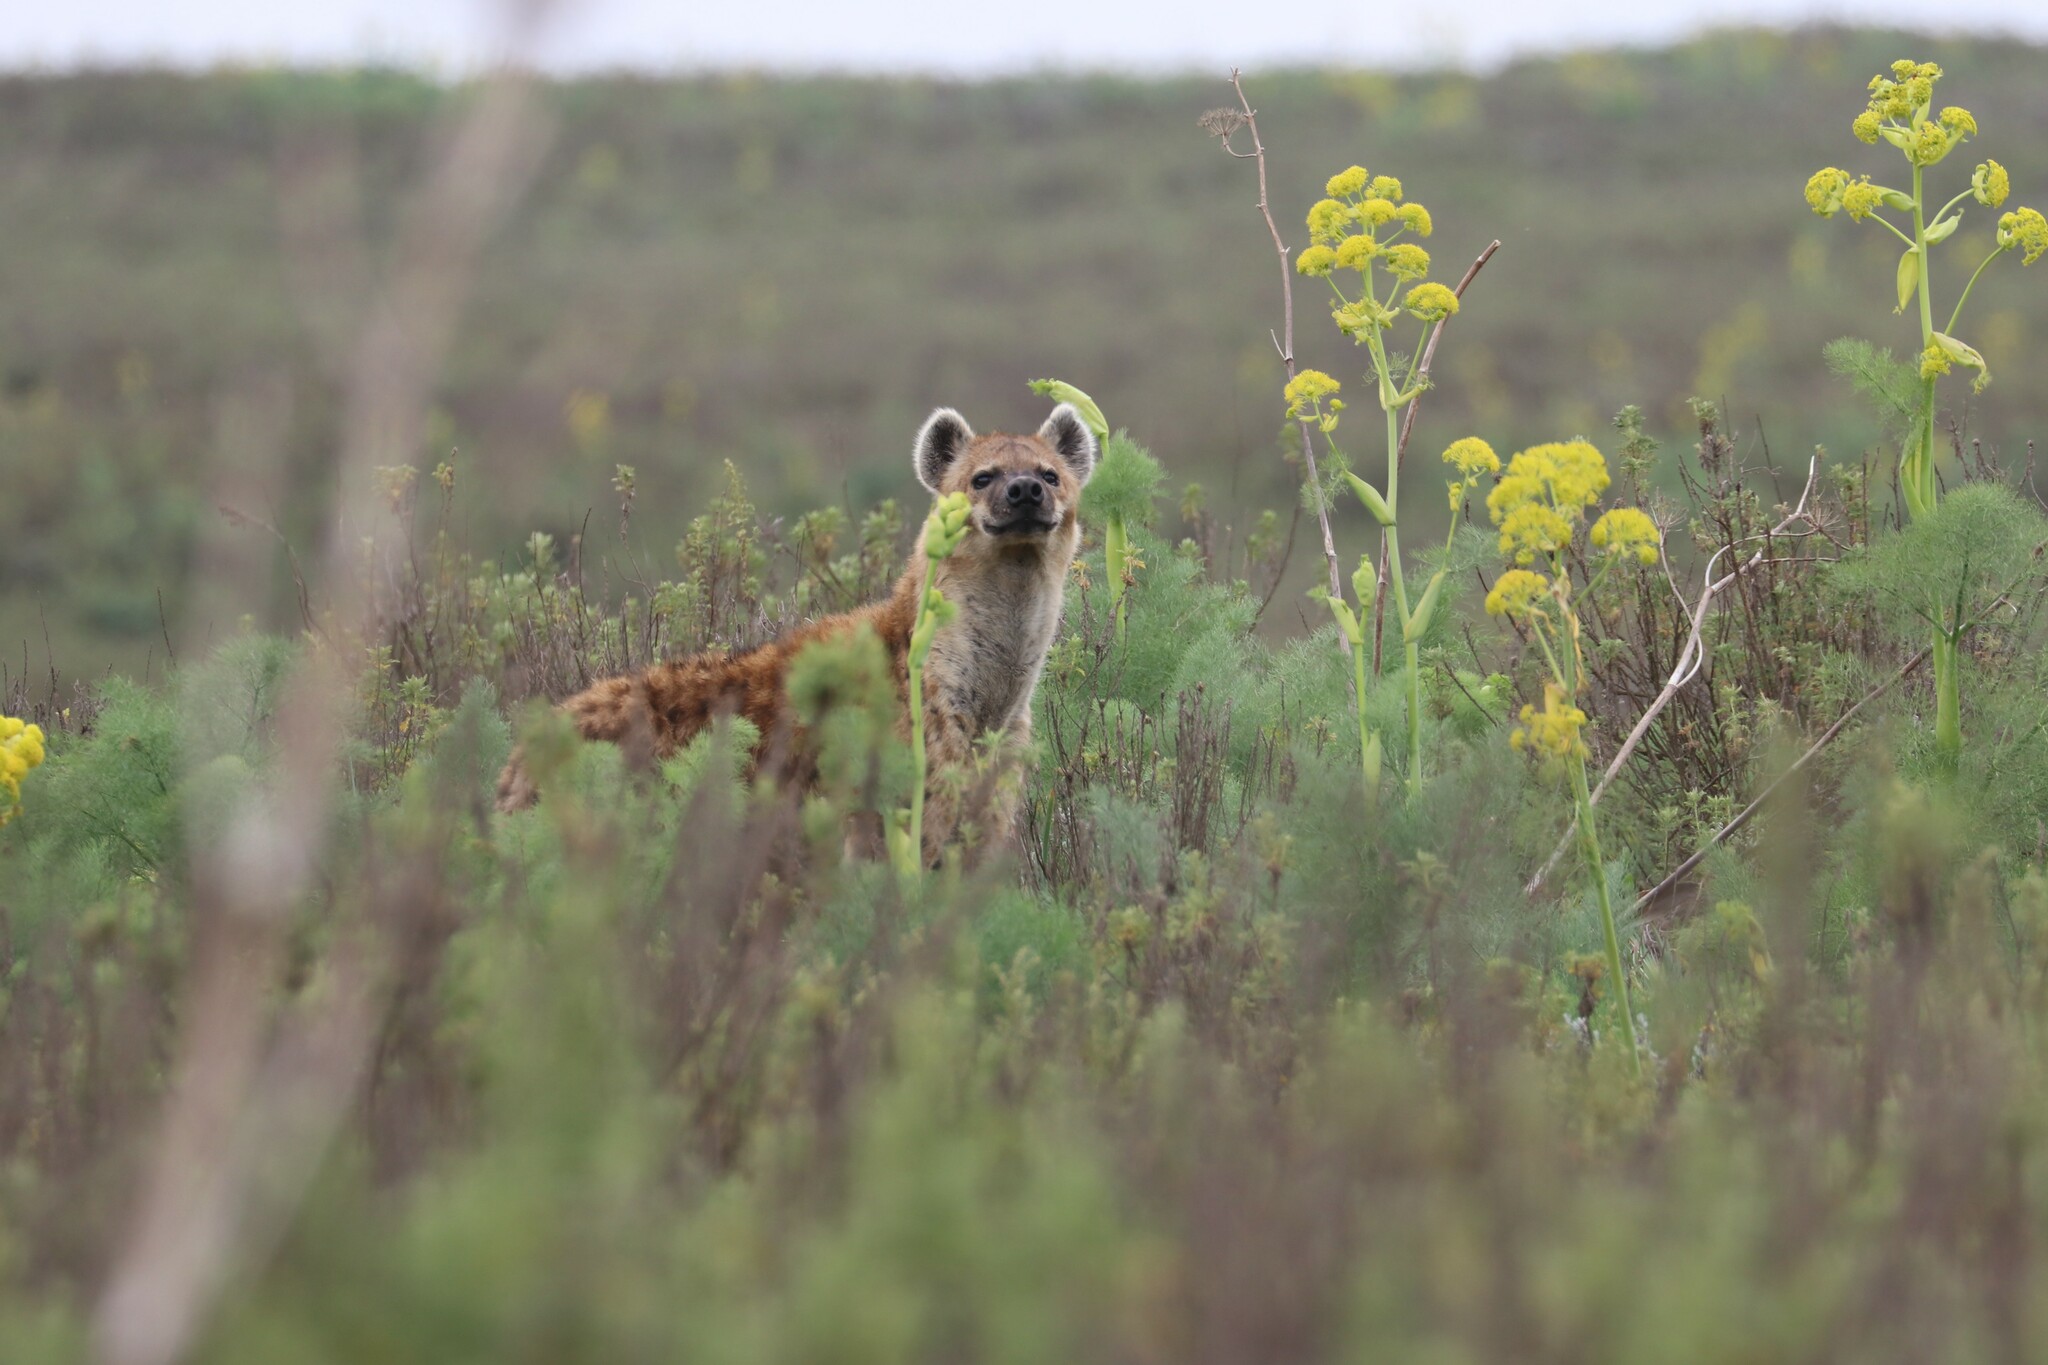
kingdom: Animalia
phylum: Chordata
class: Mammalia
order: Carnivora
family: Hyaenidae
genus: Crocuta
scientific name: Crocuta crocuta
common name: Spotted hyaena
